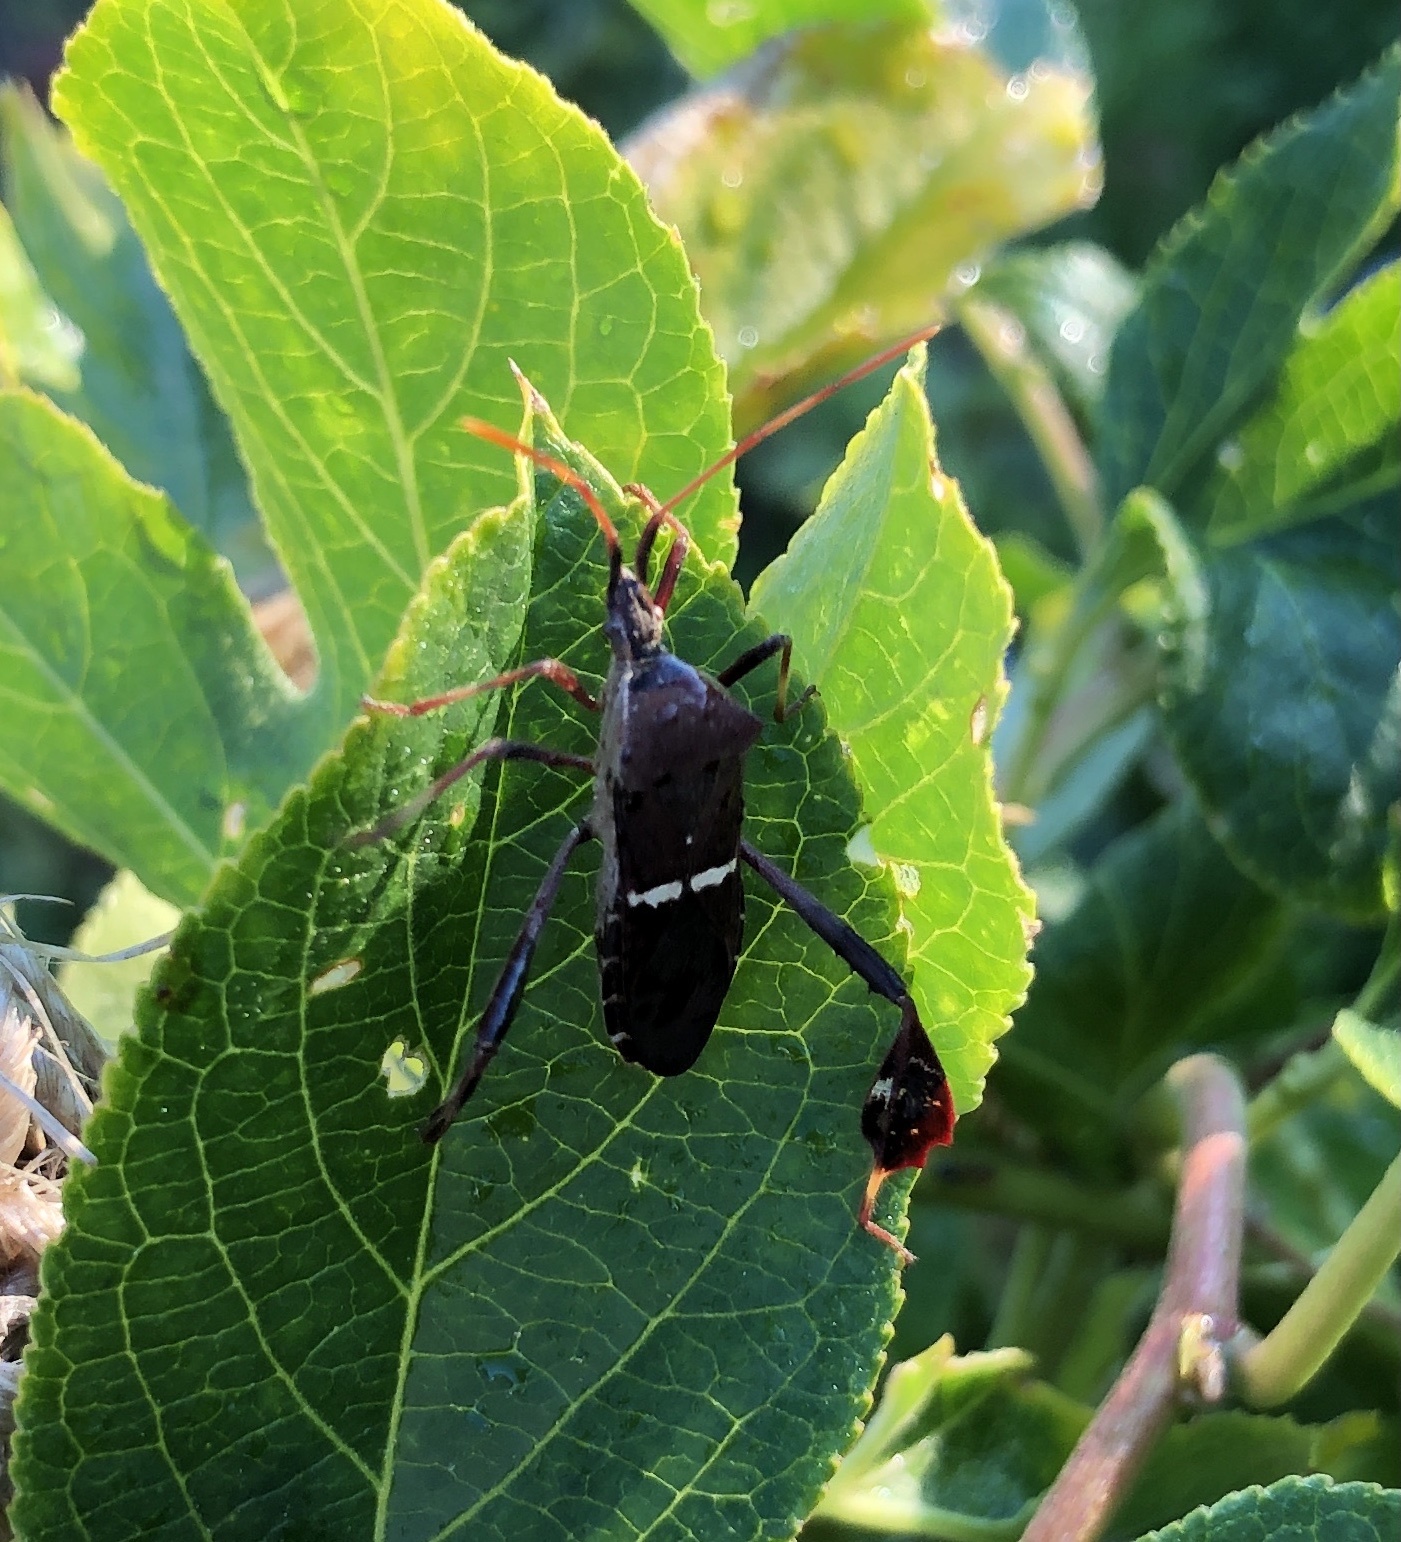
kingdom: Animalia
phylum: Arthropoda
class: Insecta
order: Hemiptera
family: Coreidae
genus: Leptoglossus
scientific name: Leptoglossus phyllopus
